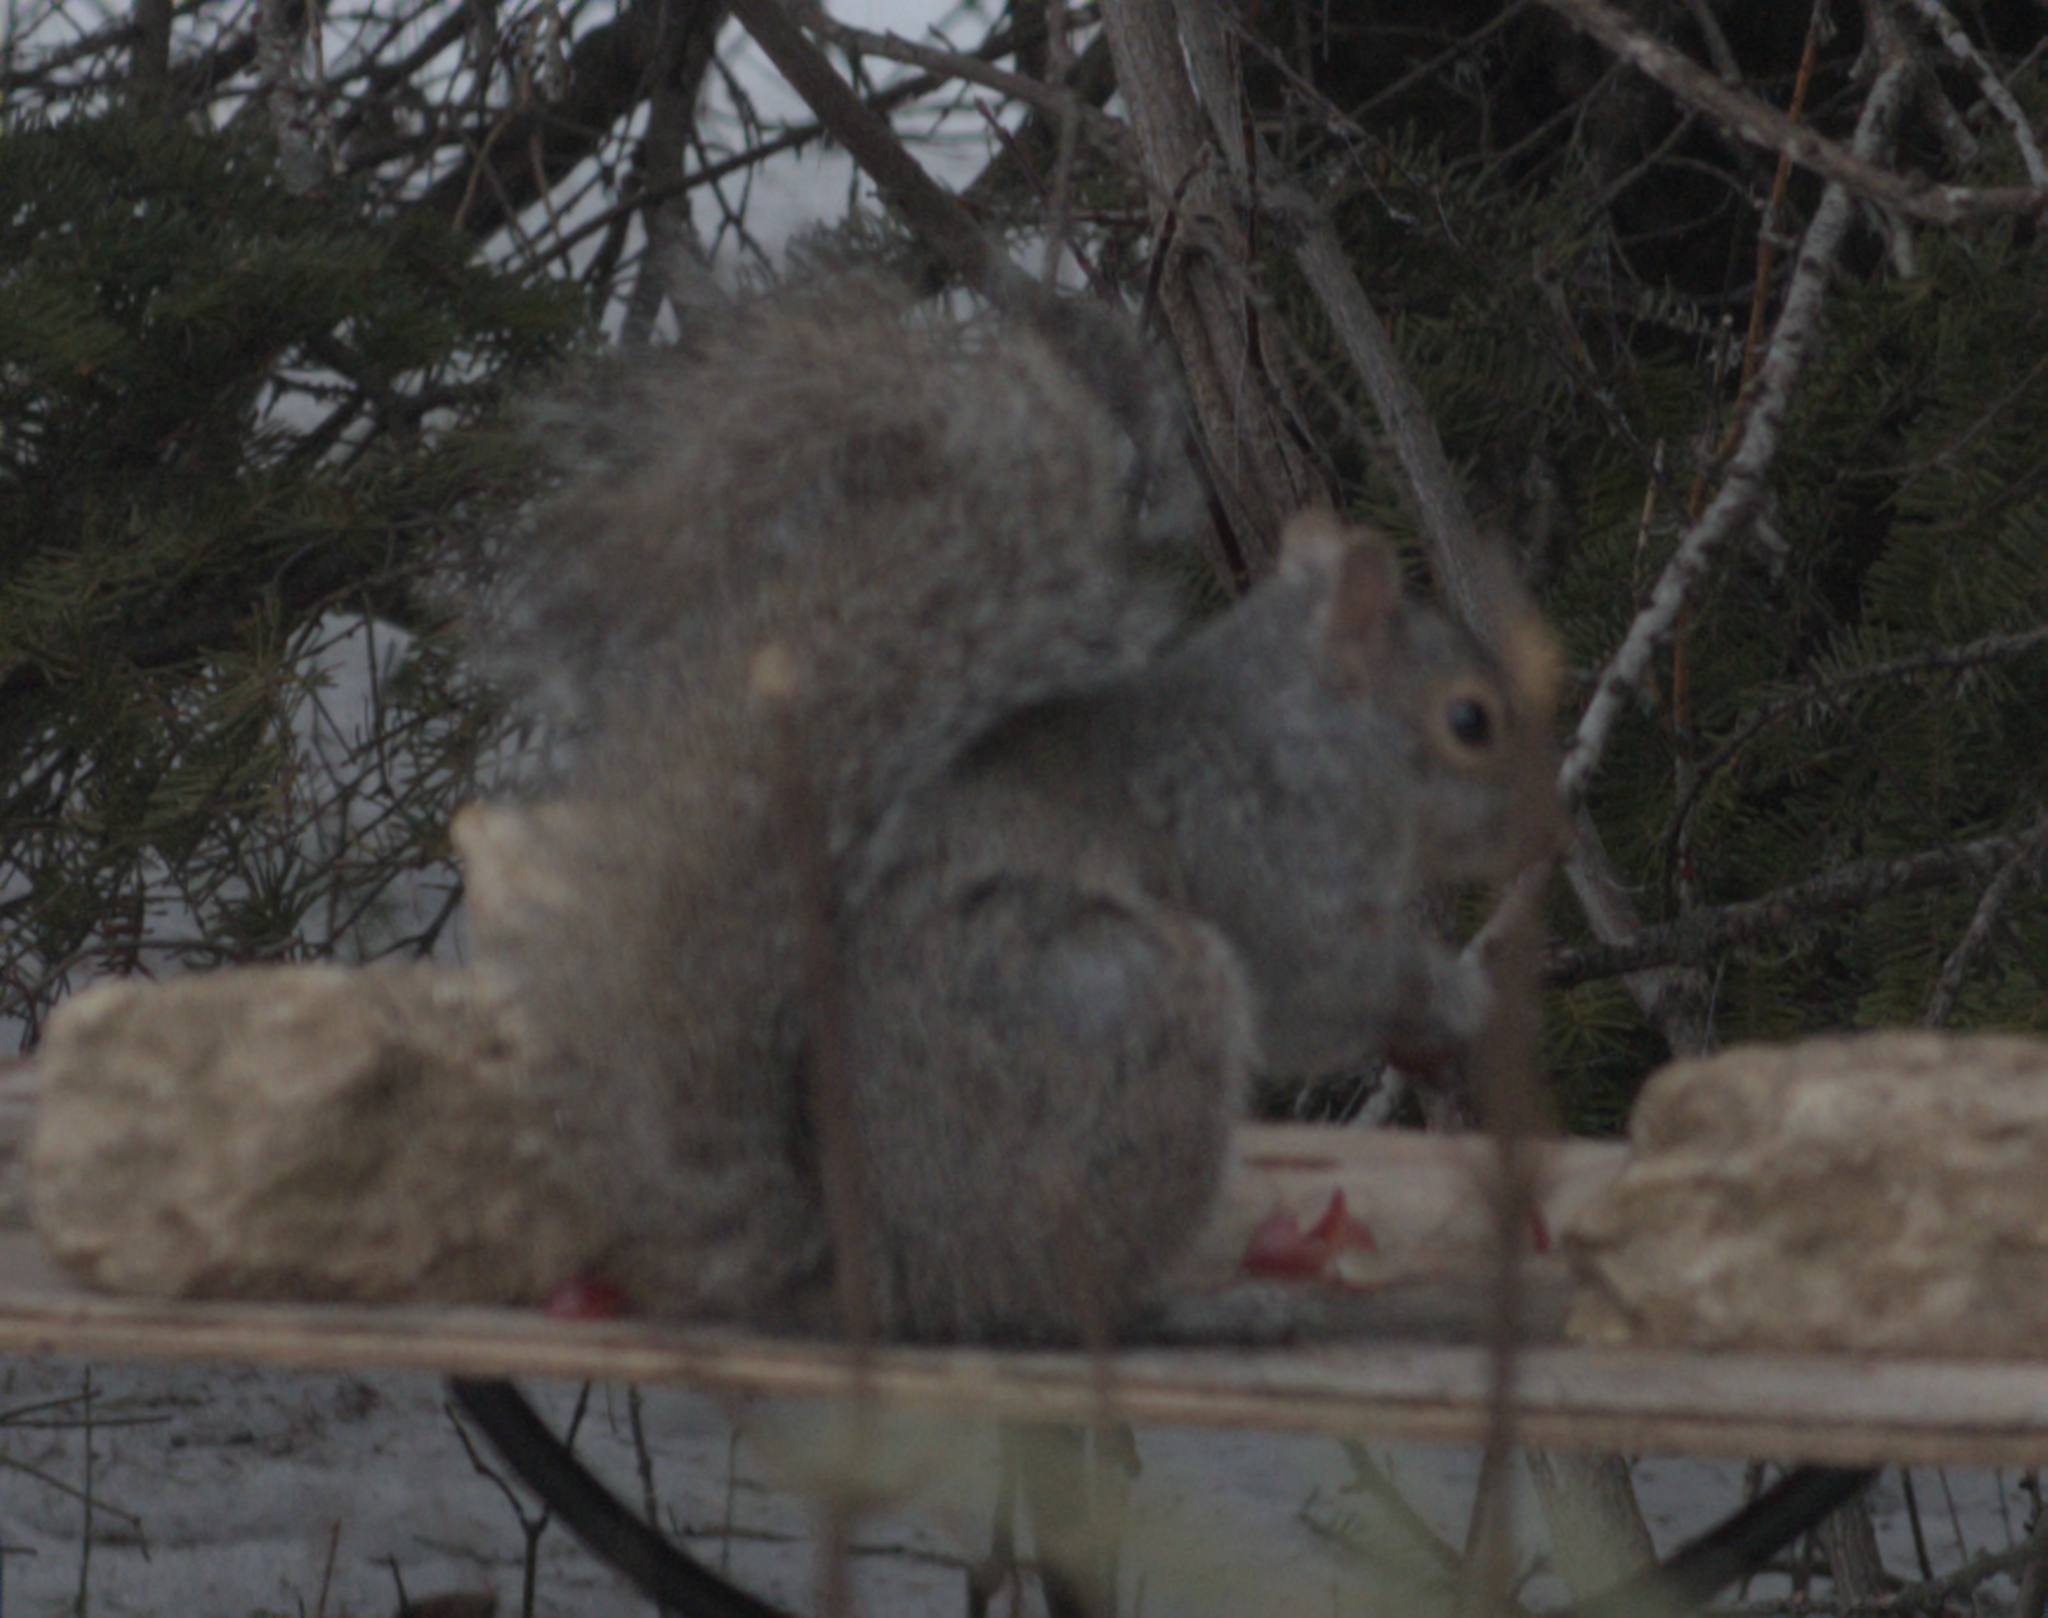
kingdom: Animalia
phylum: Chordata
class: Mammalia
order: Rodentia
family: Sciuridae
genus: Sciurus
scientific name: Sciurus carolinensis
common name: Eastern gray squirrel
